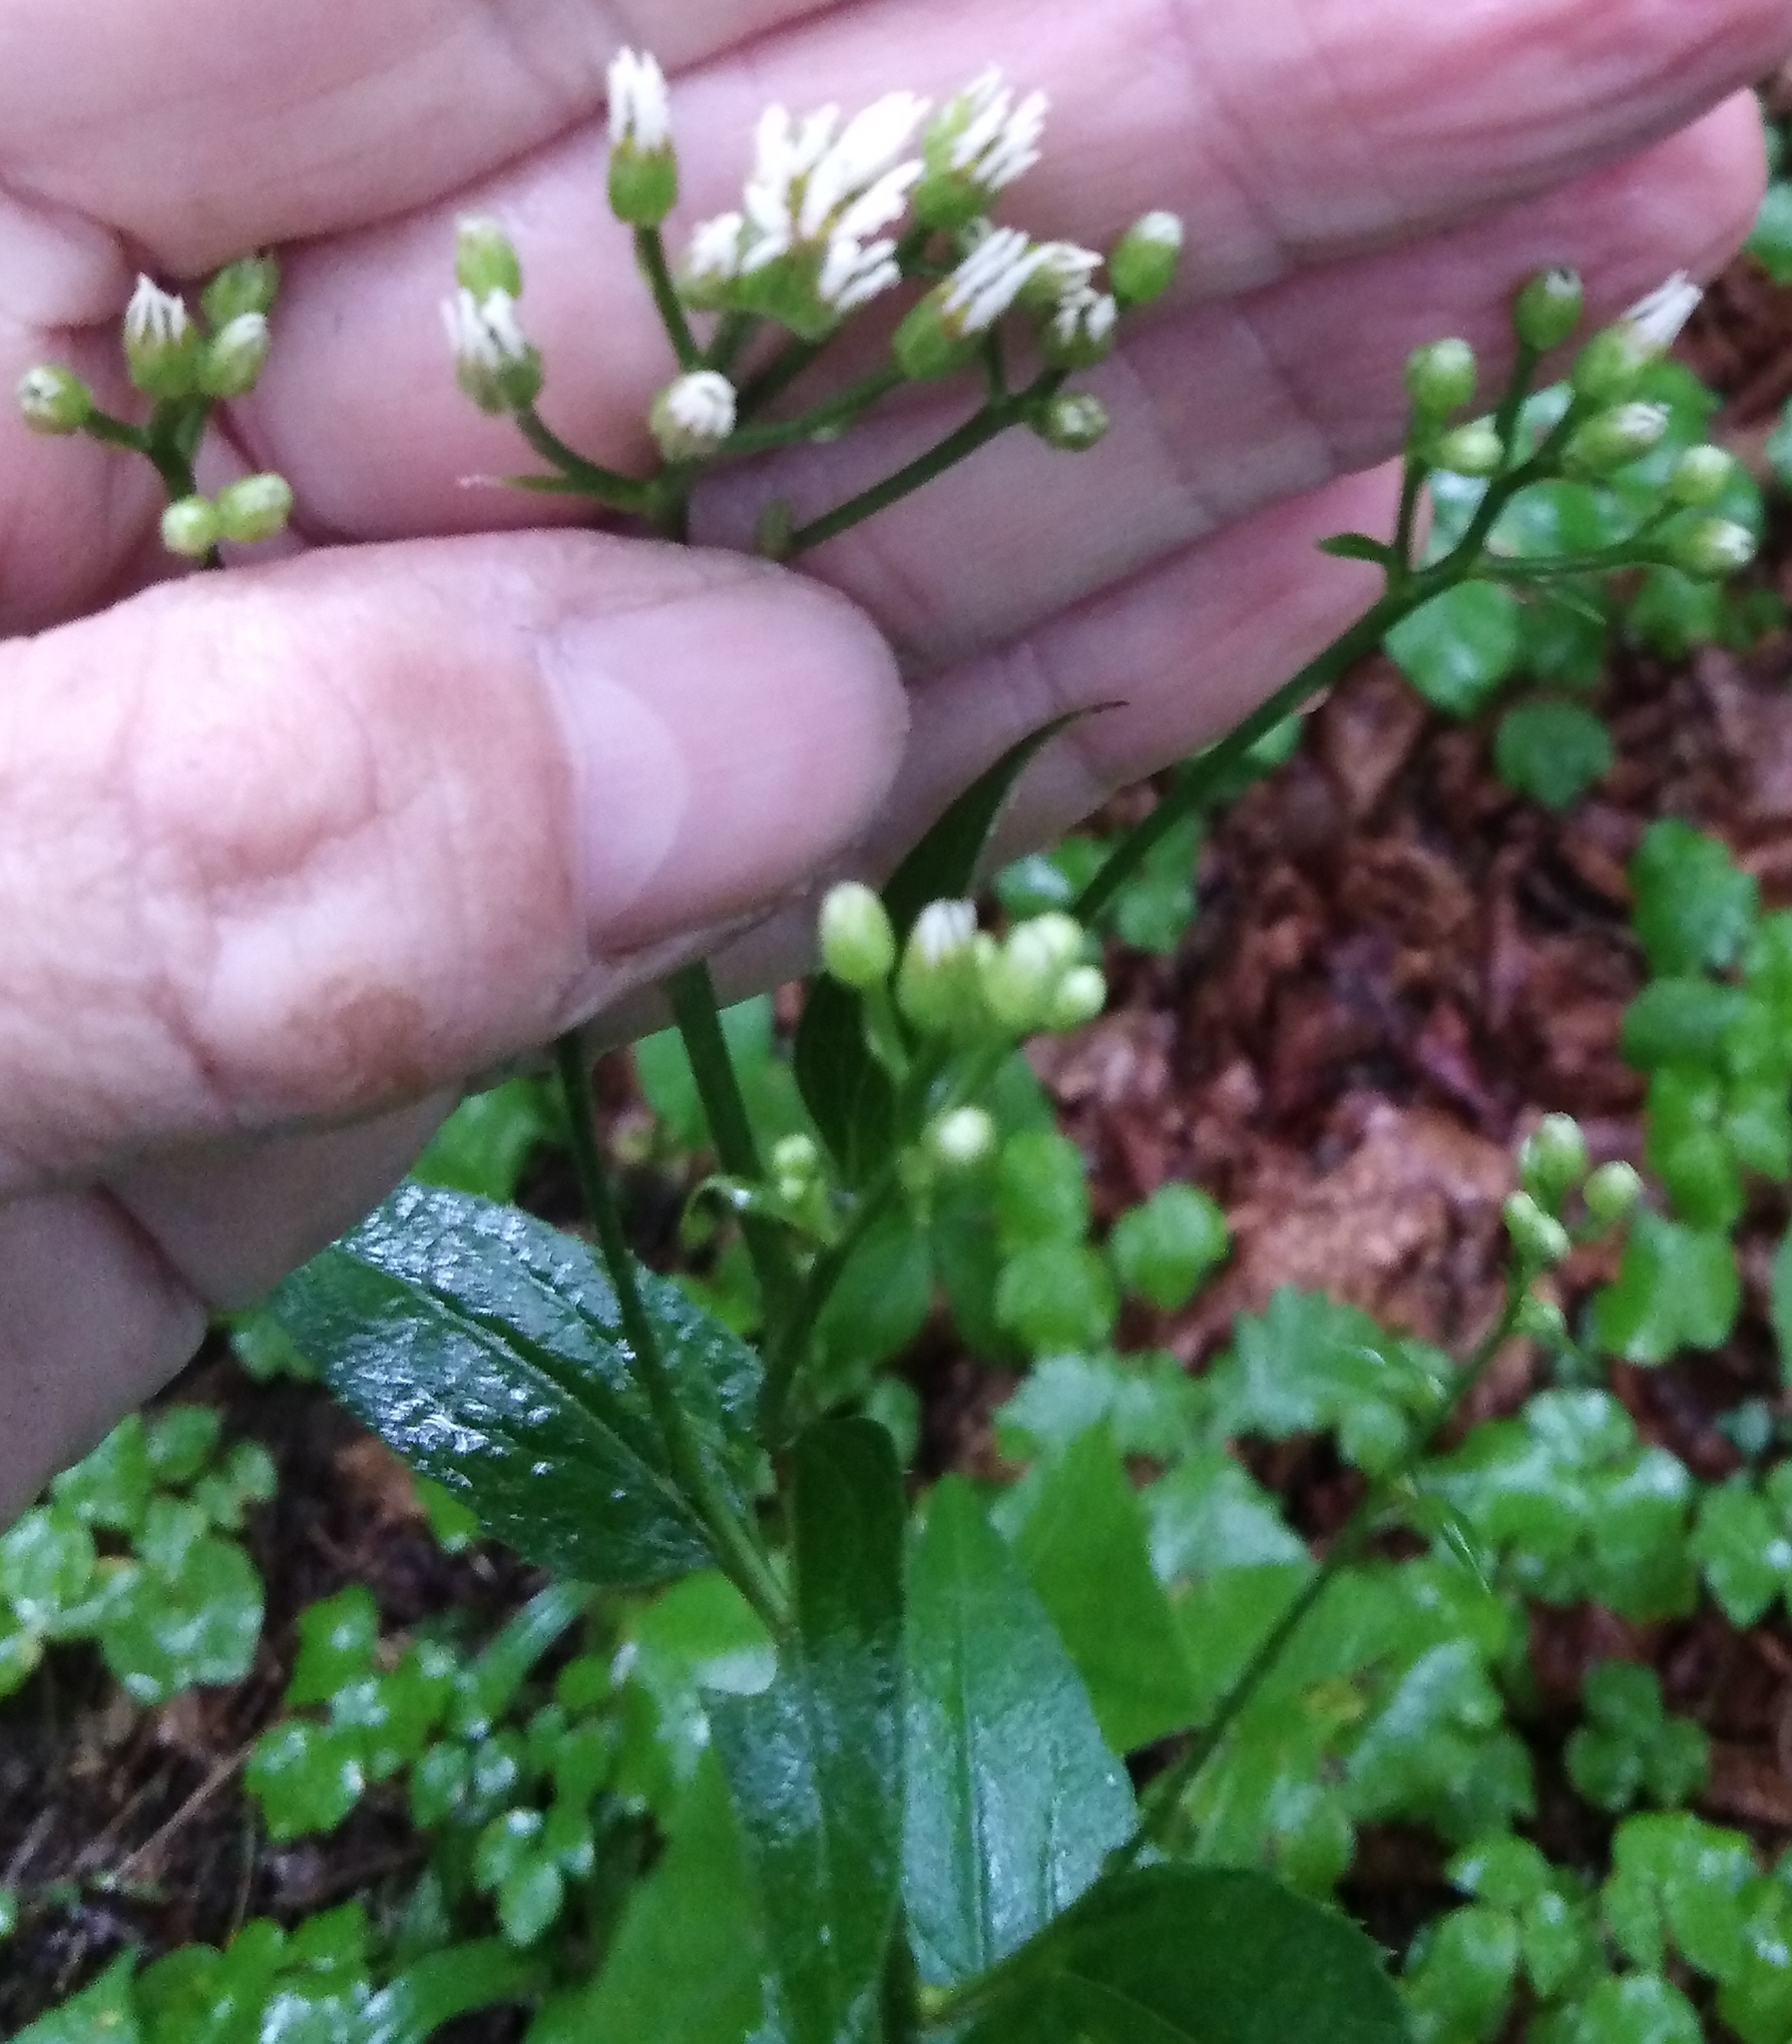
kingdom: Plantae
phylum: Tracheophyta
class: Magnoliopsida
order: Asterales
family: Asteraceae
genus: Aster
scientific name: Aster scaber
